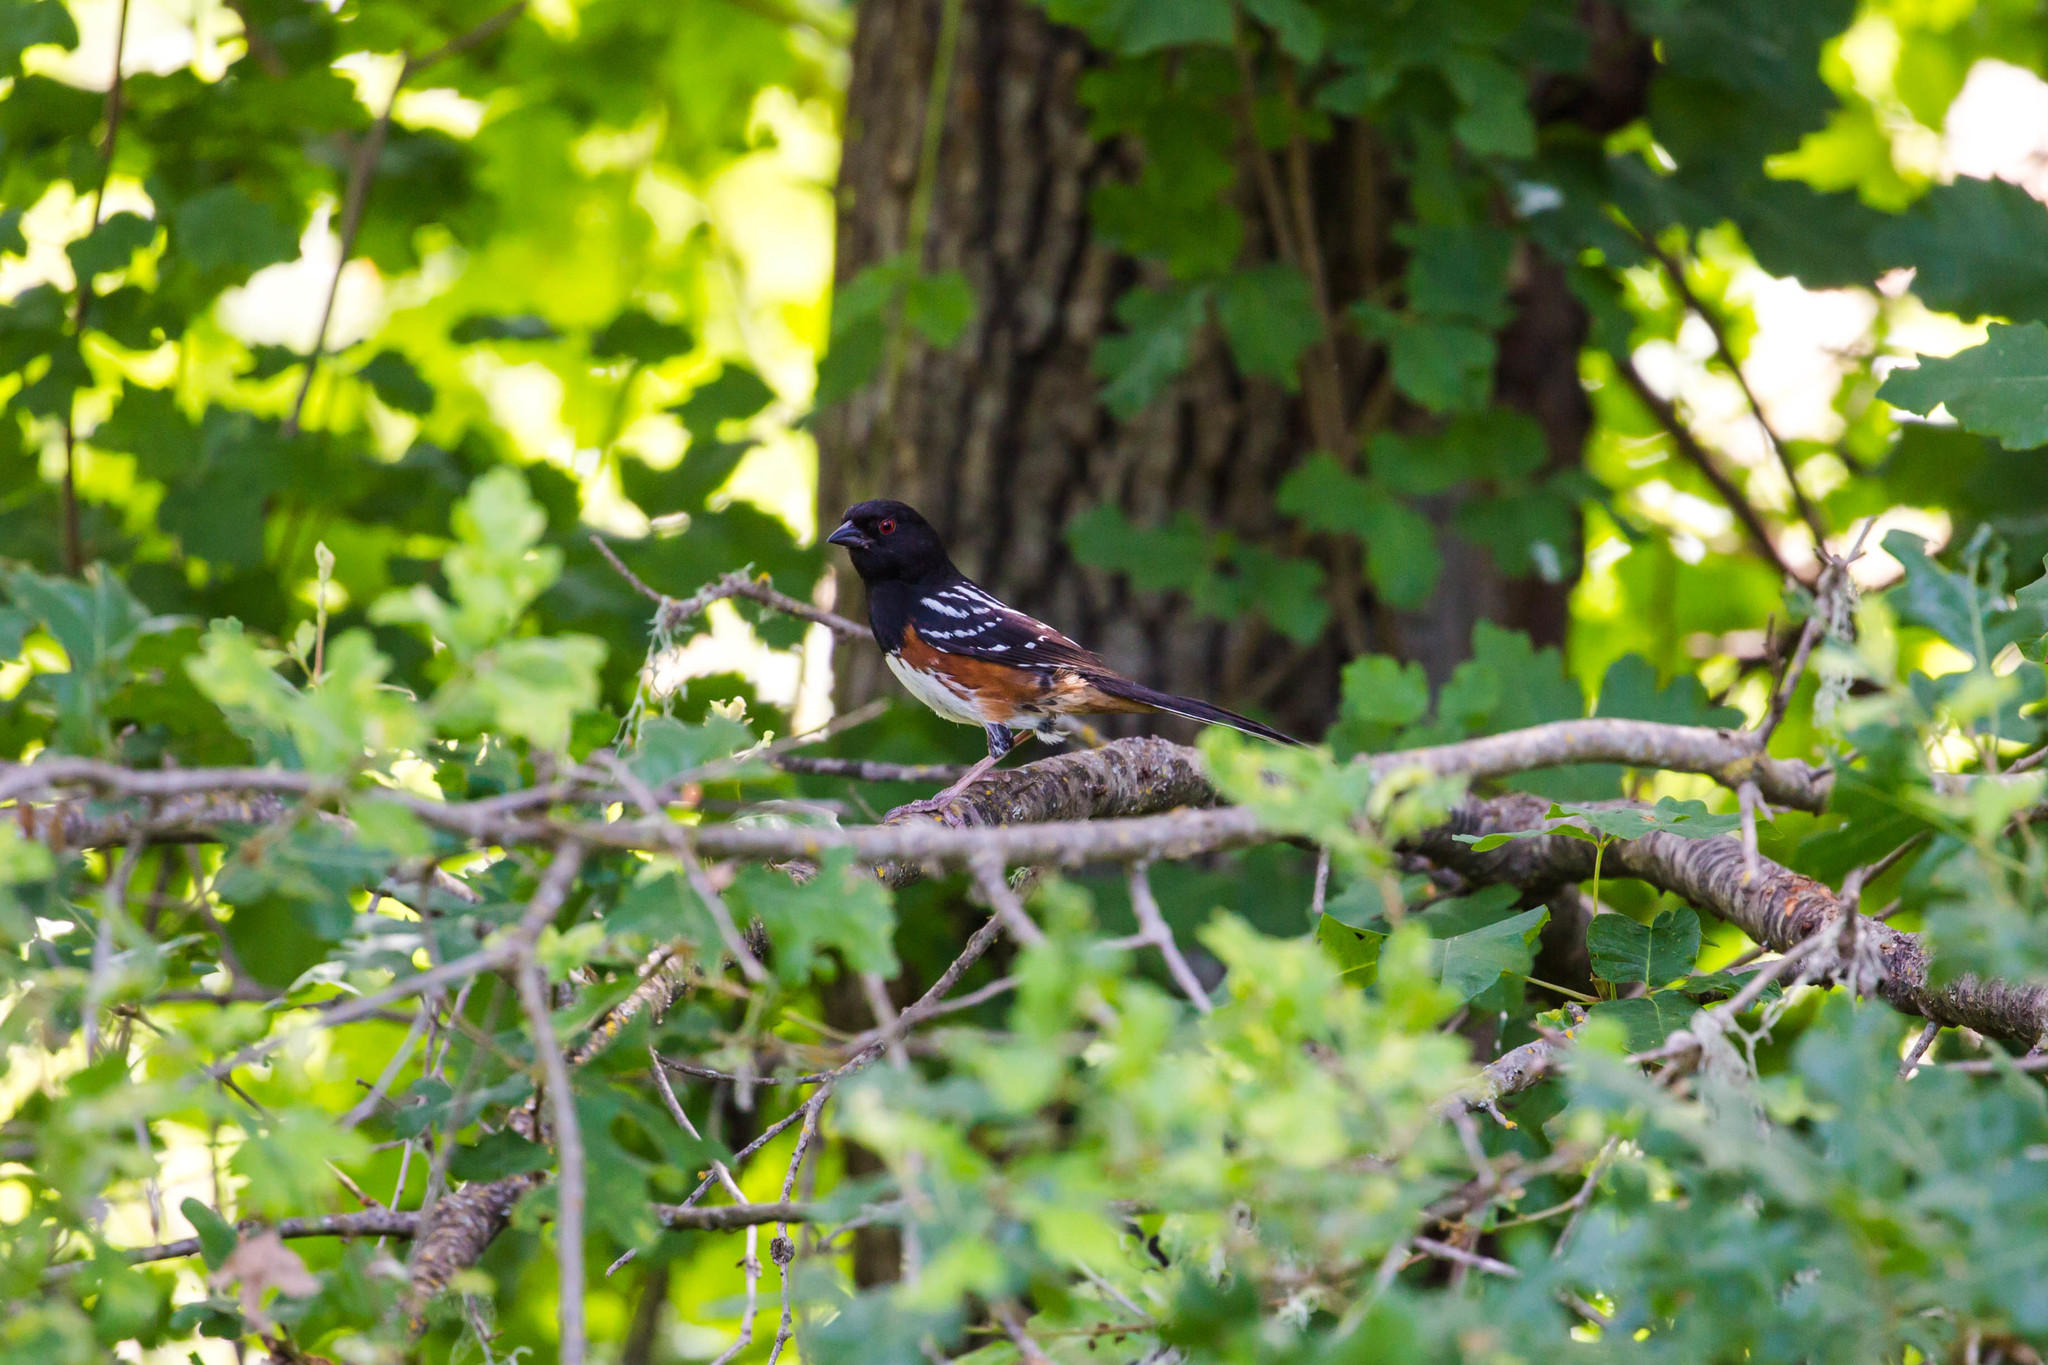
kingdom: Animalia
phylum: Chordata
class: Aves
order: Passeriformes
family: Passerellidae
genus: Pipilo
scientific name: Pipilo maculatus
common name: Spotted towhee
